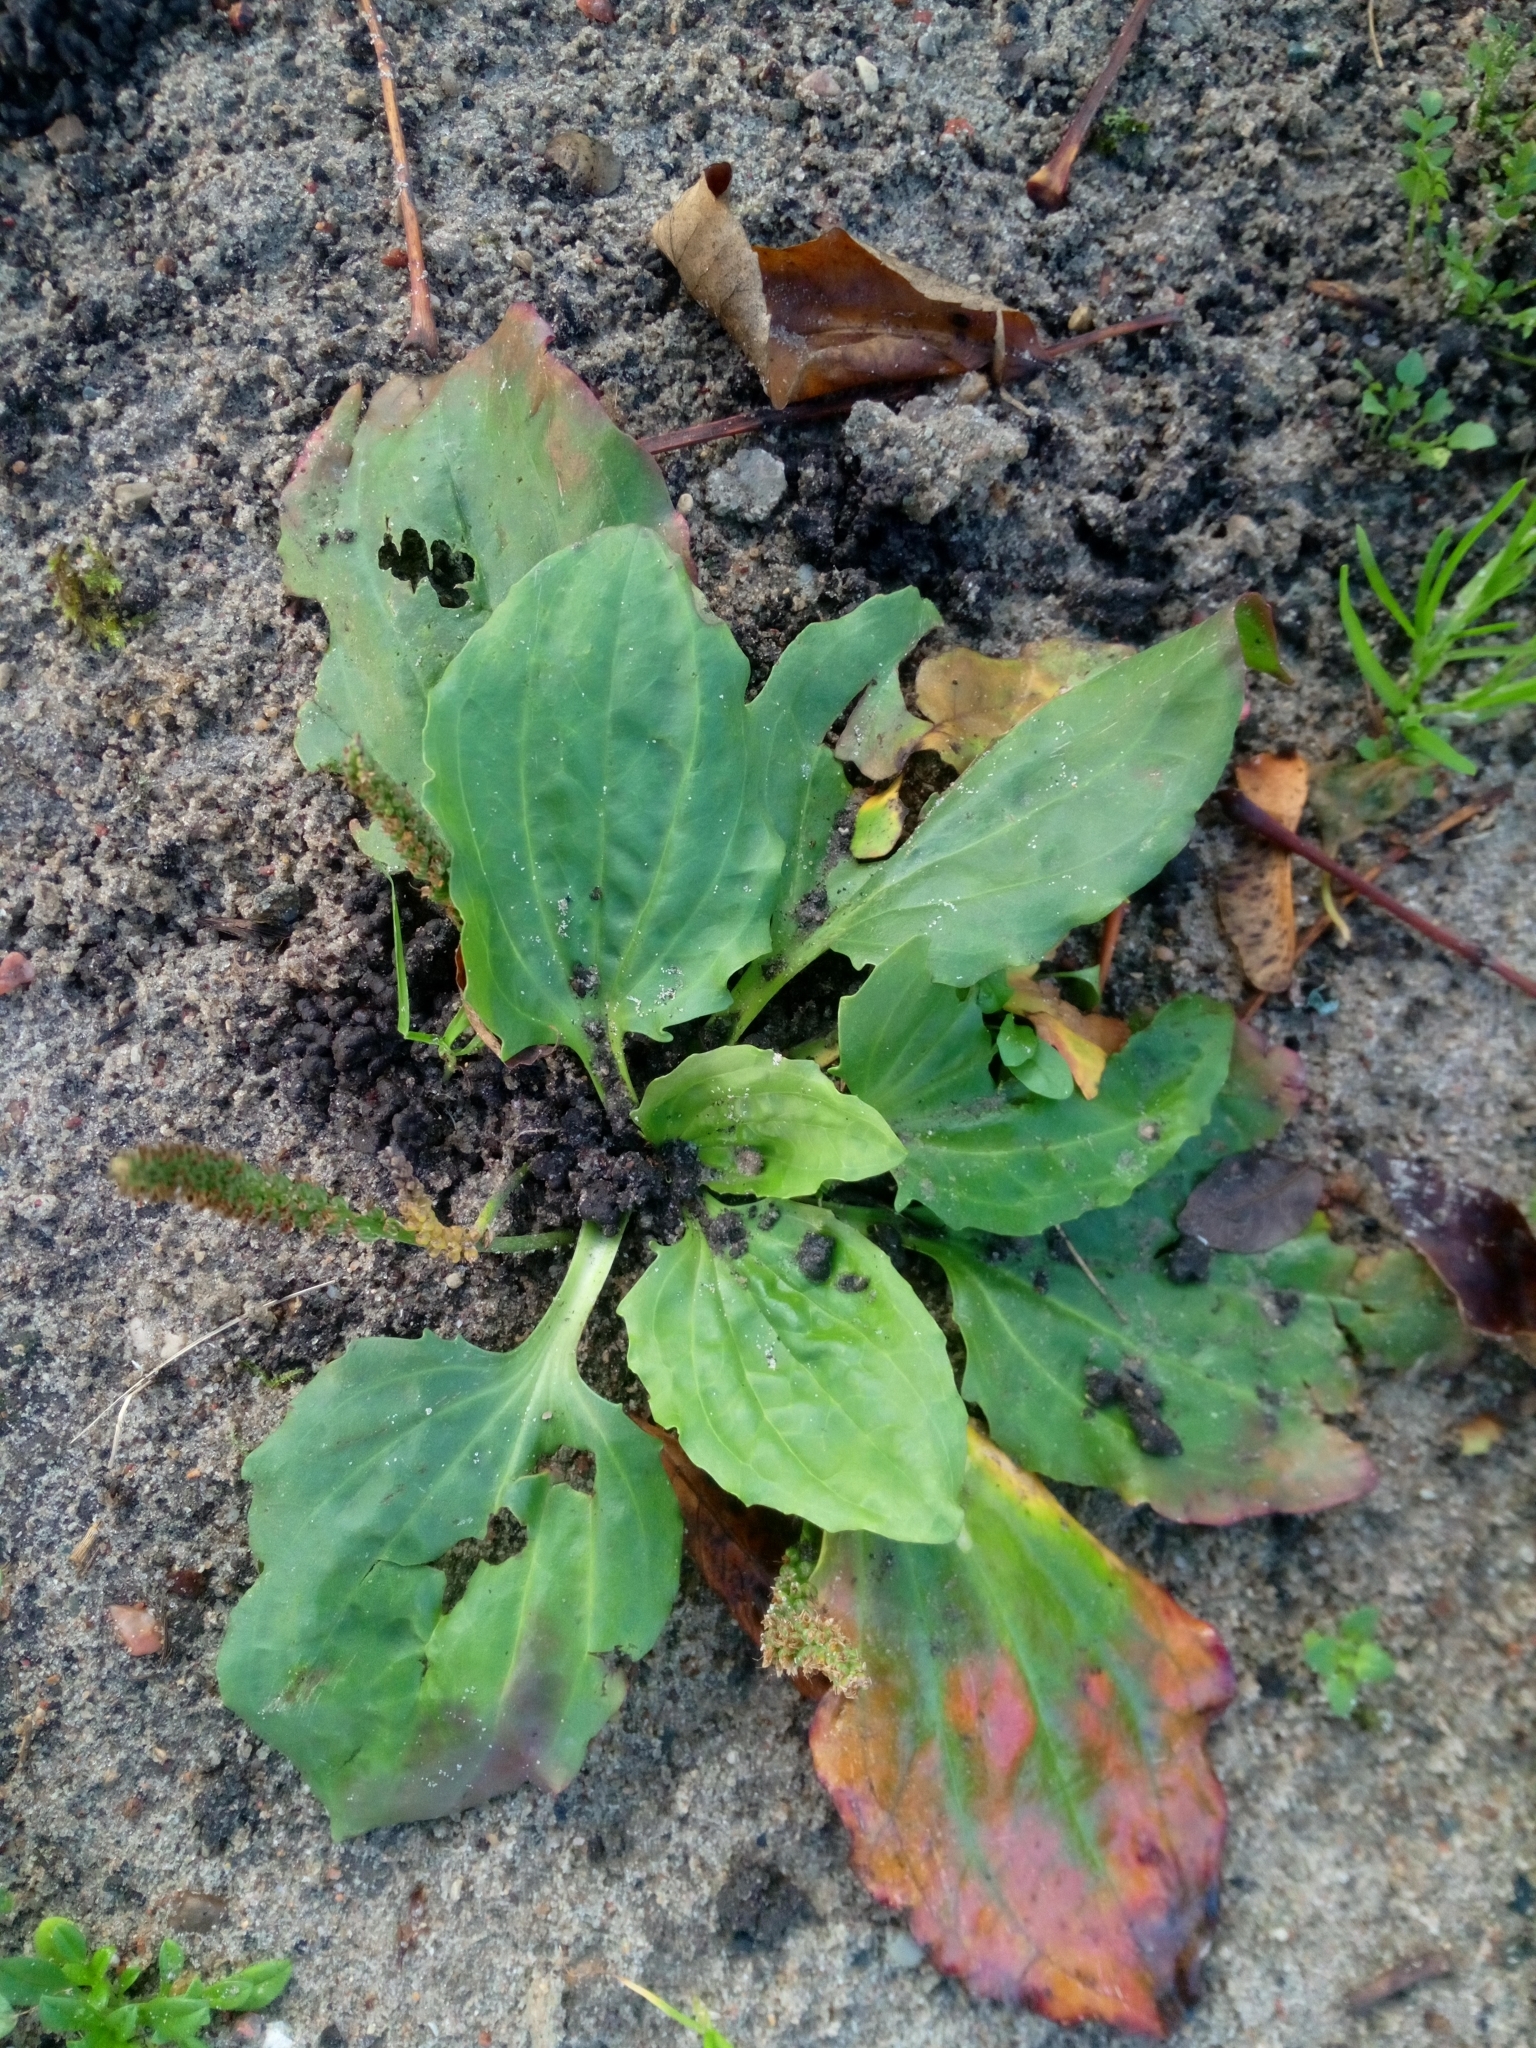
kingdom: Plantae
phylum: Tracheophyta
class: Magnoliopsida
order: Lamiales
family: Plantaginaceae
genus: Plantago
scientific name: Plantago major
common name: Common plantain
